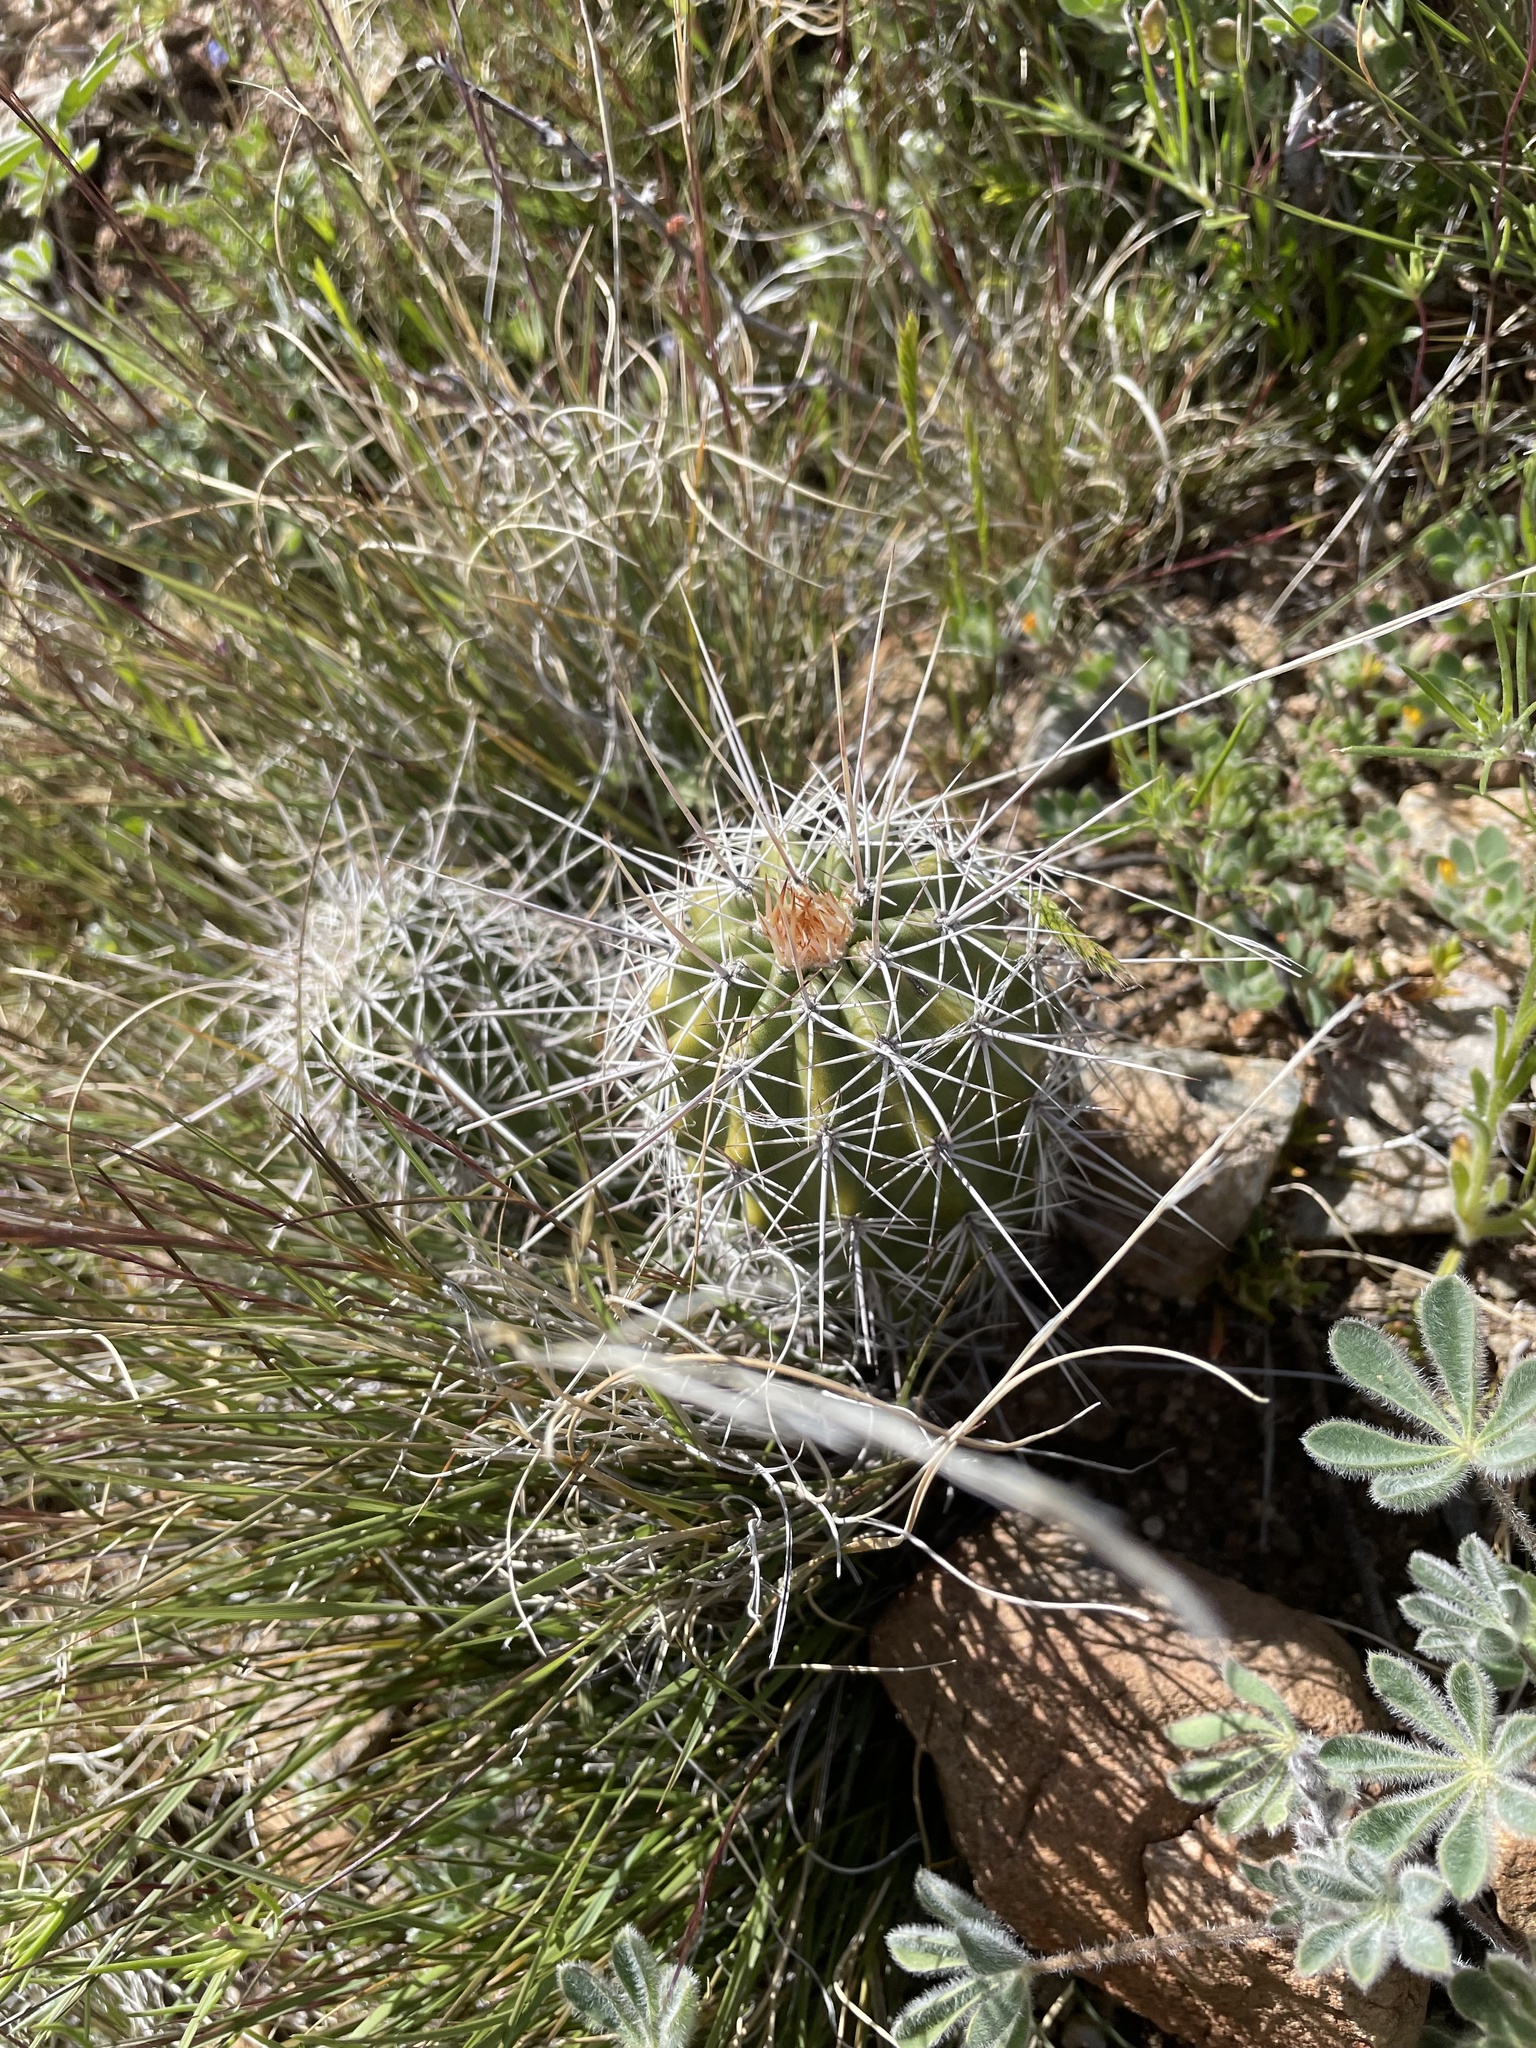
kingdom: Plantae
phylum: Tracheophyta
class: Magnoliopsida
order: Caryophyllales
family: Cactaceae
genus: Echinocereus
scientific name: Echinocereus fasciculatus
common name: Bundle hedgehog
